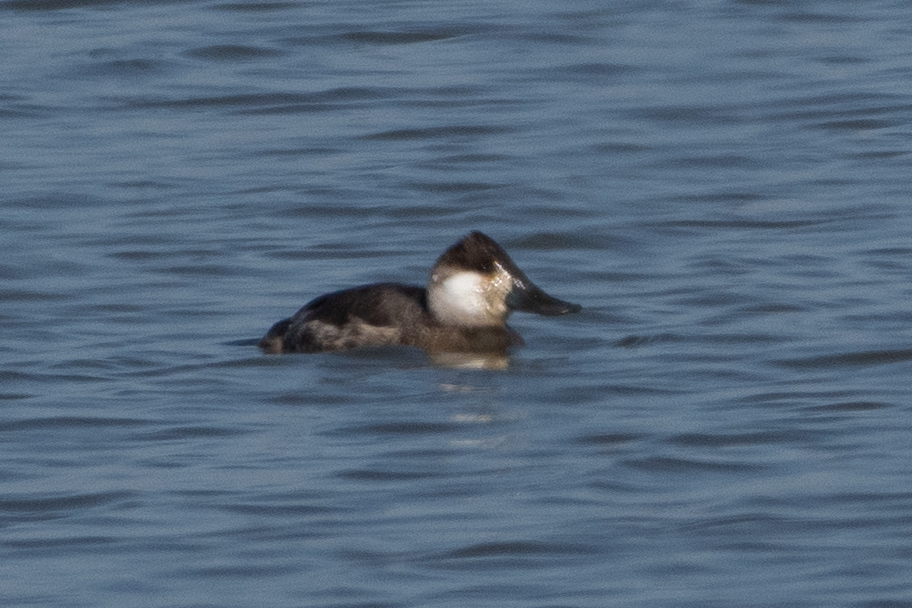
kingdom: Animalia
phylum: Chordata
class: Aves
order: Anseriformes
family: Anatidae
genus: Oxyura
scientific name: Oxyura jamaicensis
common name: Ruddy duck
